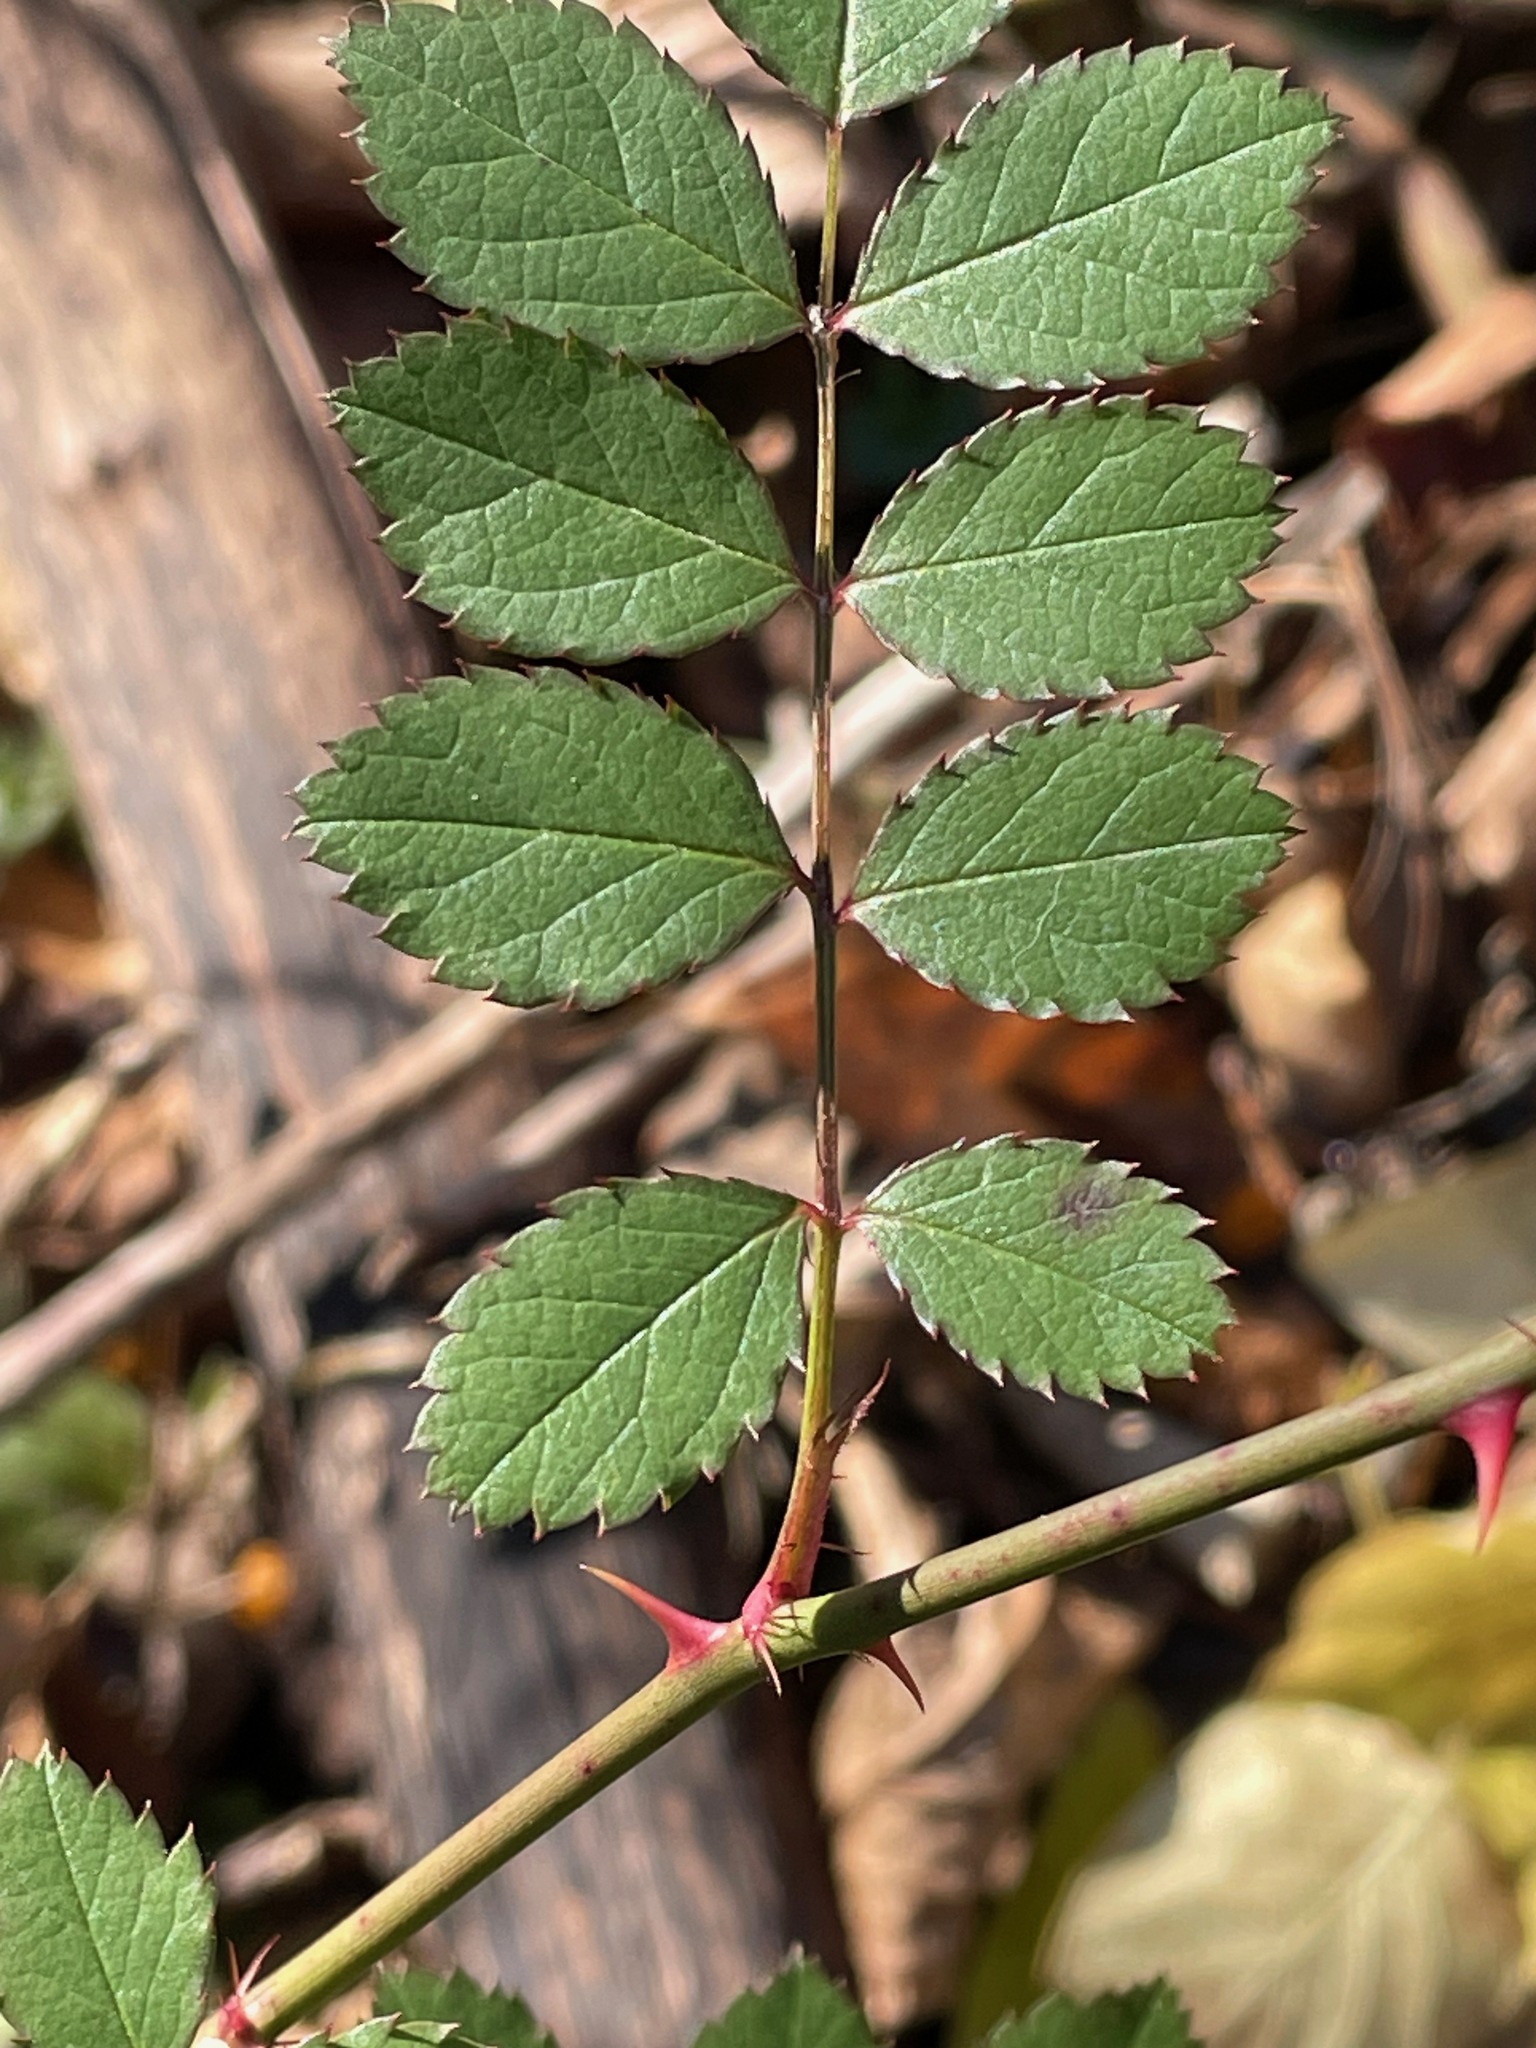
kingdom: Plantae
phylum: Tracheophyta
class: Magnoliopsida
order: Rosales
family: Rosaceae
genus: Rosa
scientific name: Rosa multiflora
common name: Multiflora rose
